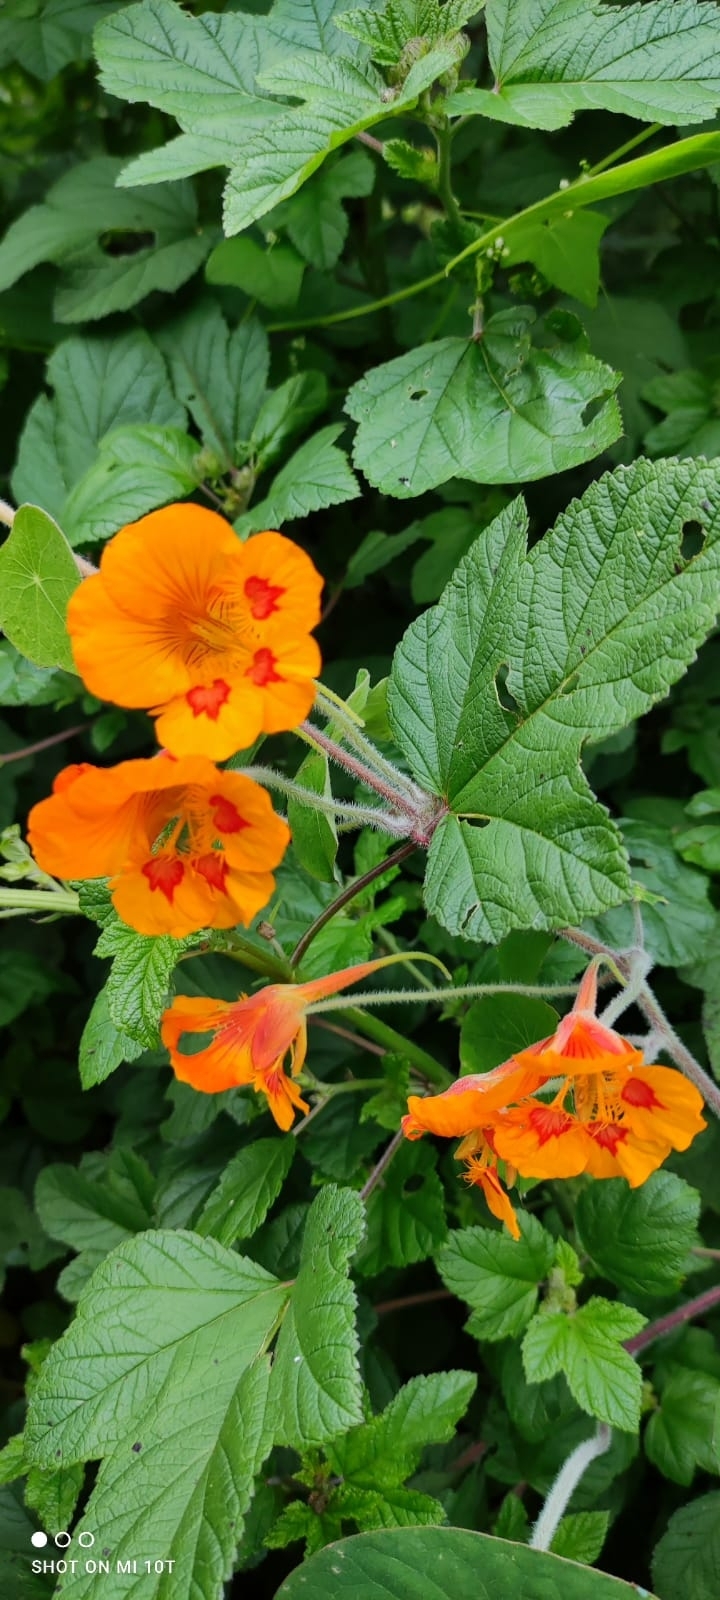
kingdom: Plantae
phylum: Tracheophyta
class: Magnoliopsida
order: Brassicales
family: Tropaeolaceae
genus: Tropaeolum
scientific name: Tropaeolum minus
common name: Dwarf nasturtium
